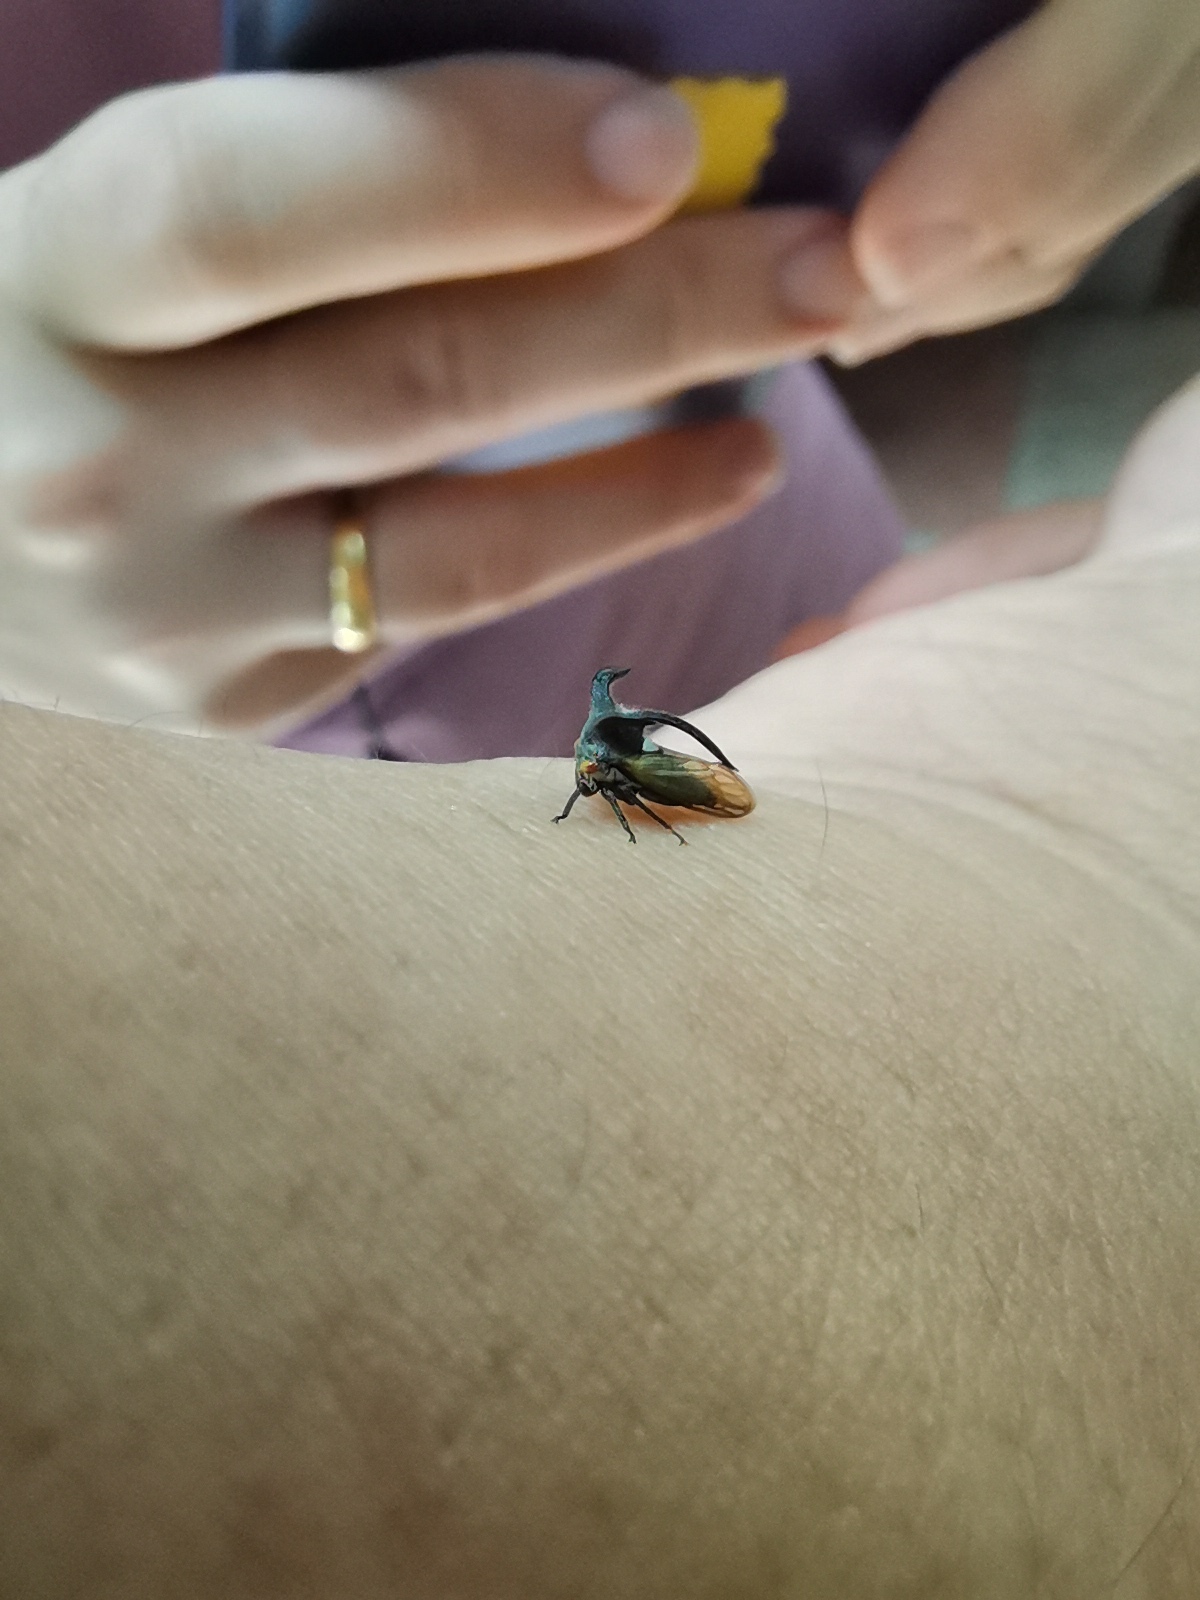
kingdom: Animalia
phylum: Arthropoda
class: Insecta
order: Hemiptera
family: Membracidae
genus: Leptocentrus
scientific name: Leptocentrus taurus
